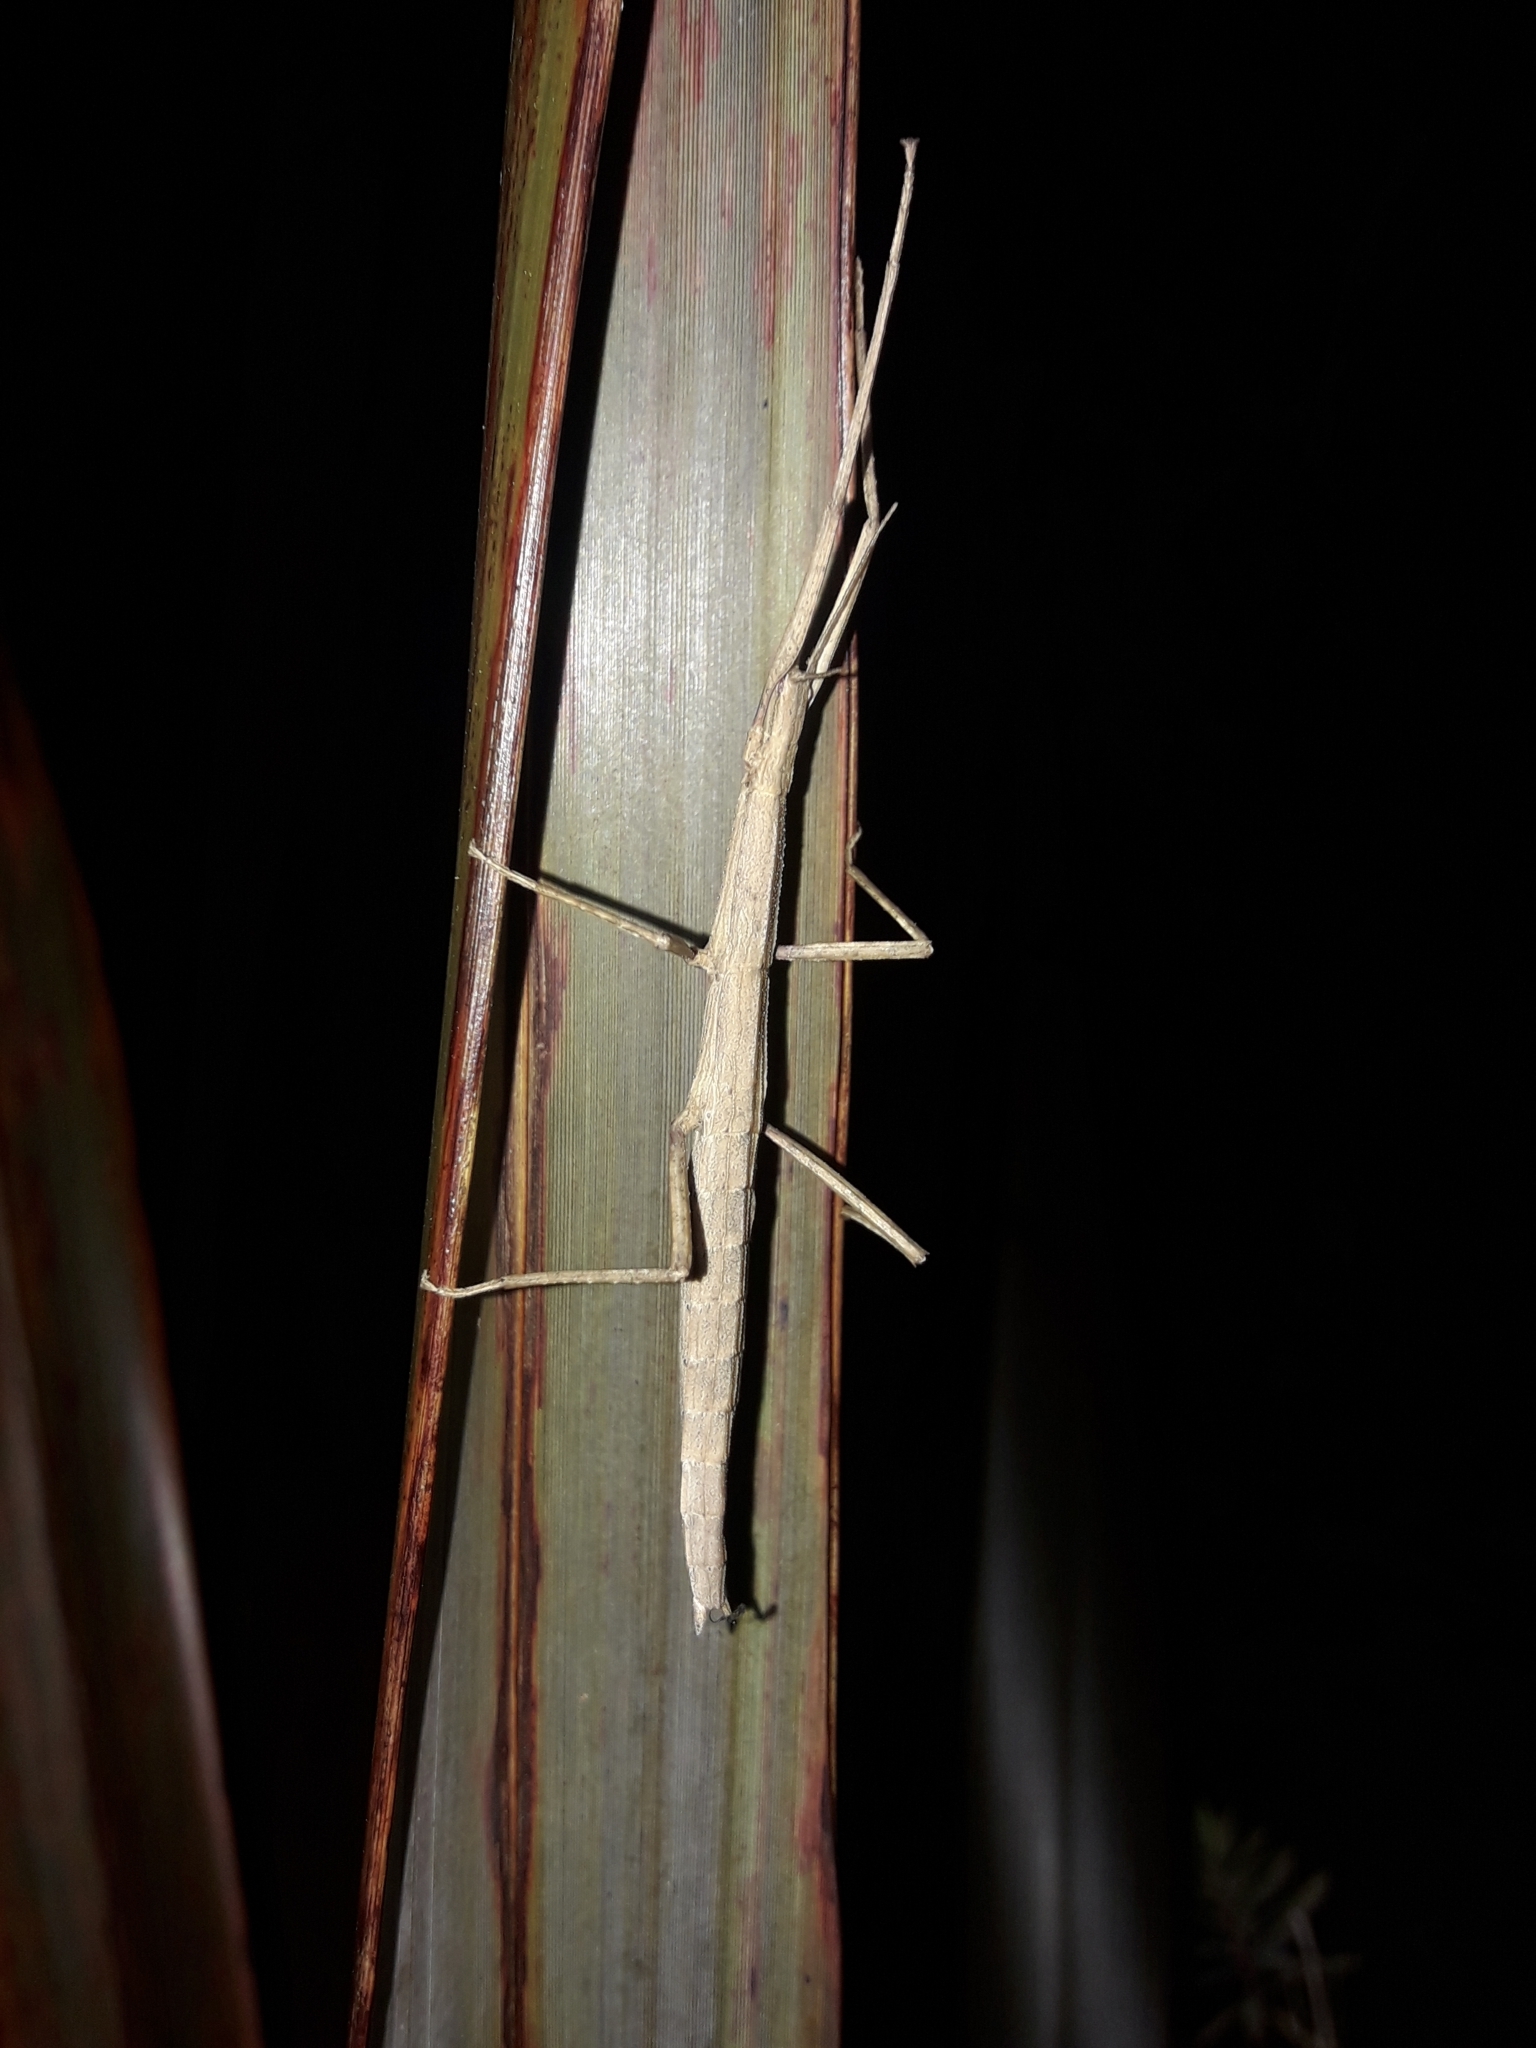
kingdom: Animalia
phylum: Arthropoda
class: Insecta
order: Phasmida
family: Phasmatidae
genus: Tectarchus
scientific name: Tectarchus huttoni
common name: The common ridge-backed stick insect
